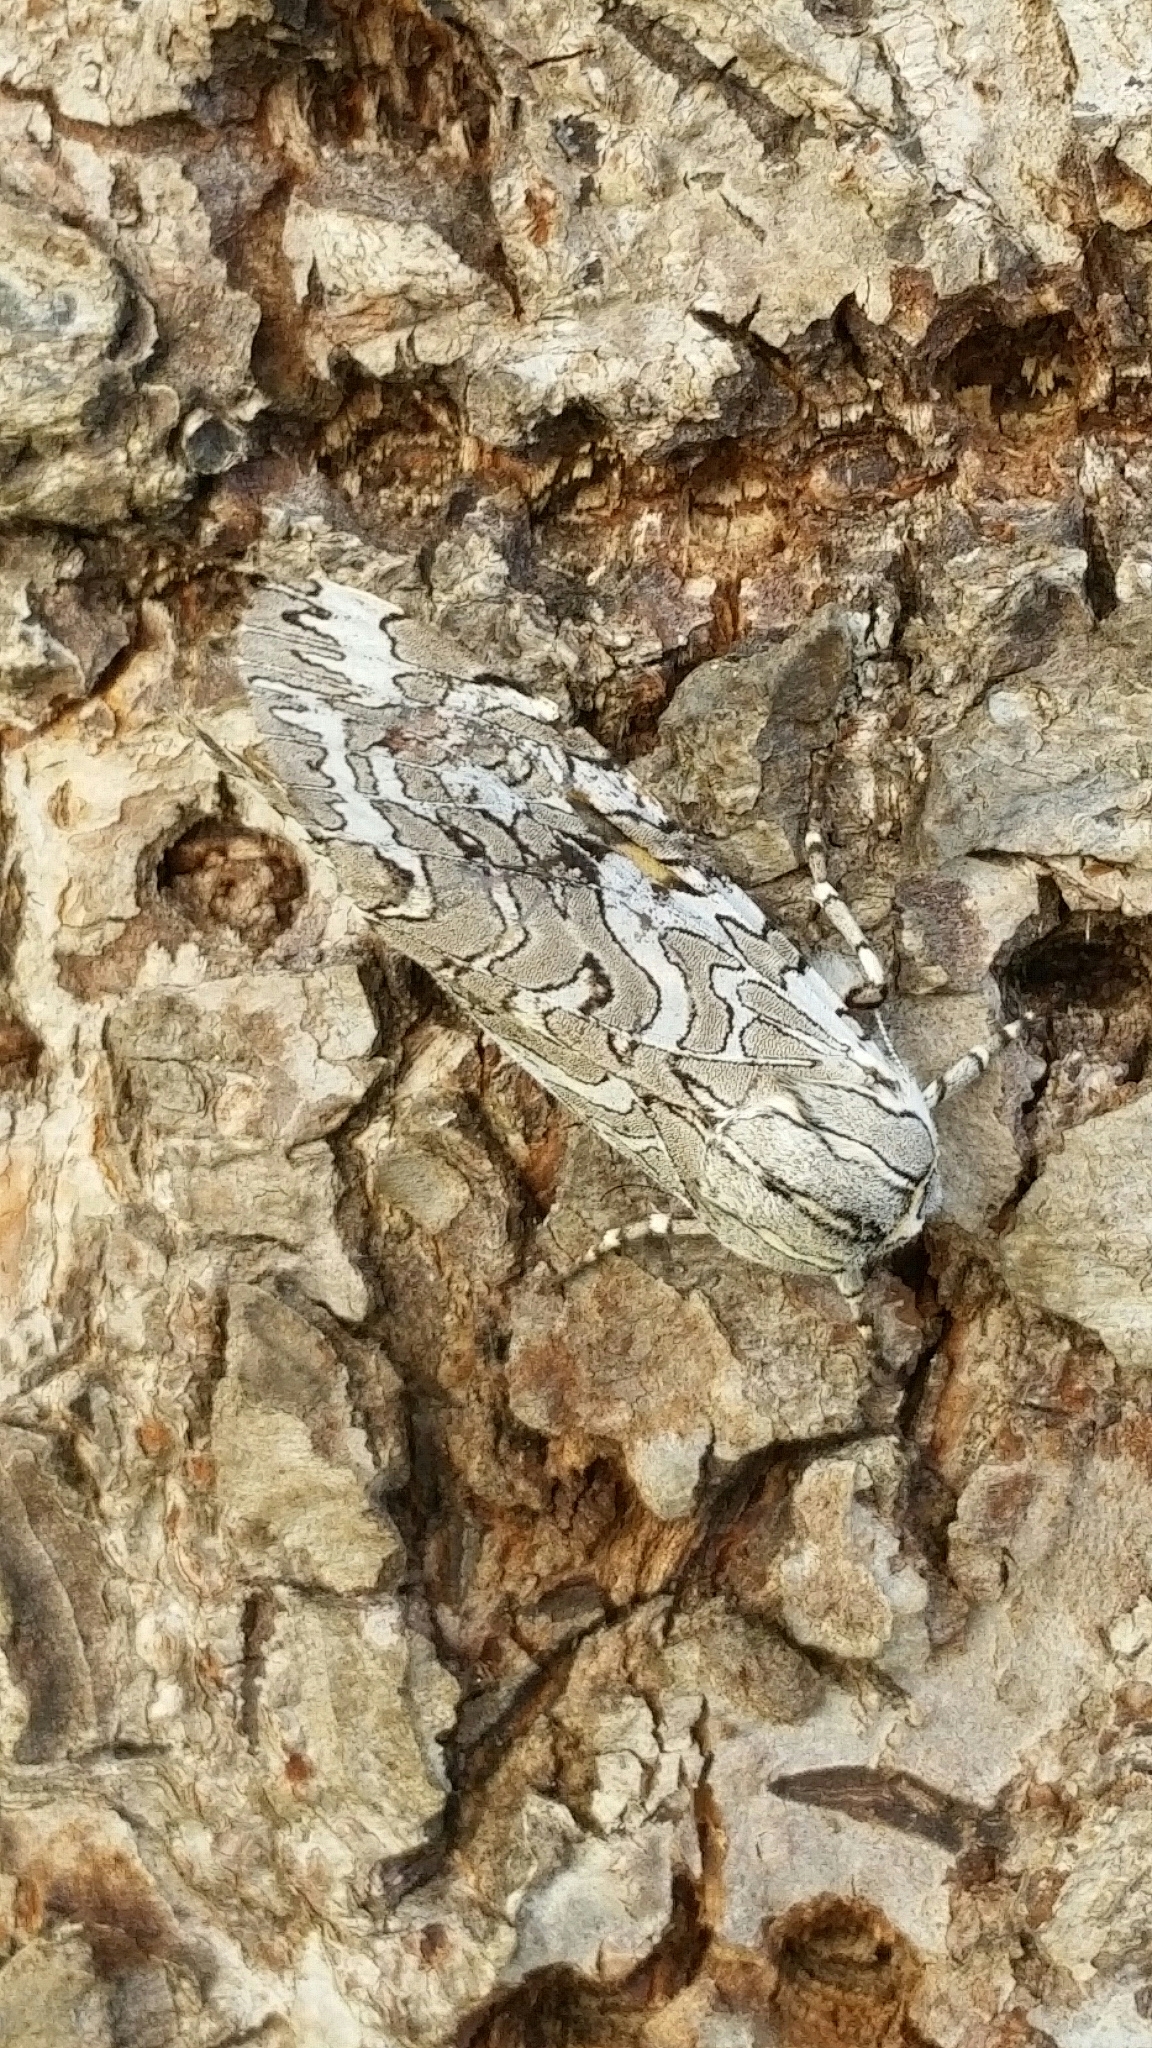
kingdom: Animalia
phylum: Arthropoda
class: Insecta
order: Lepidoptera
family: Erebidae
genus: Arachnis
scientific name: Arachnis picta
